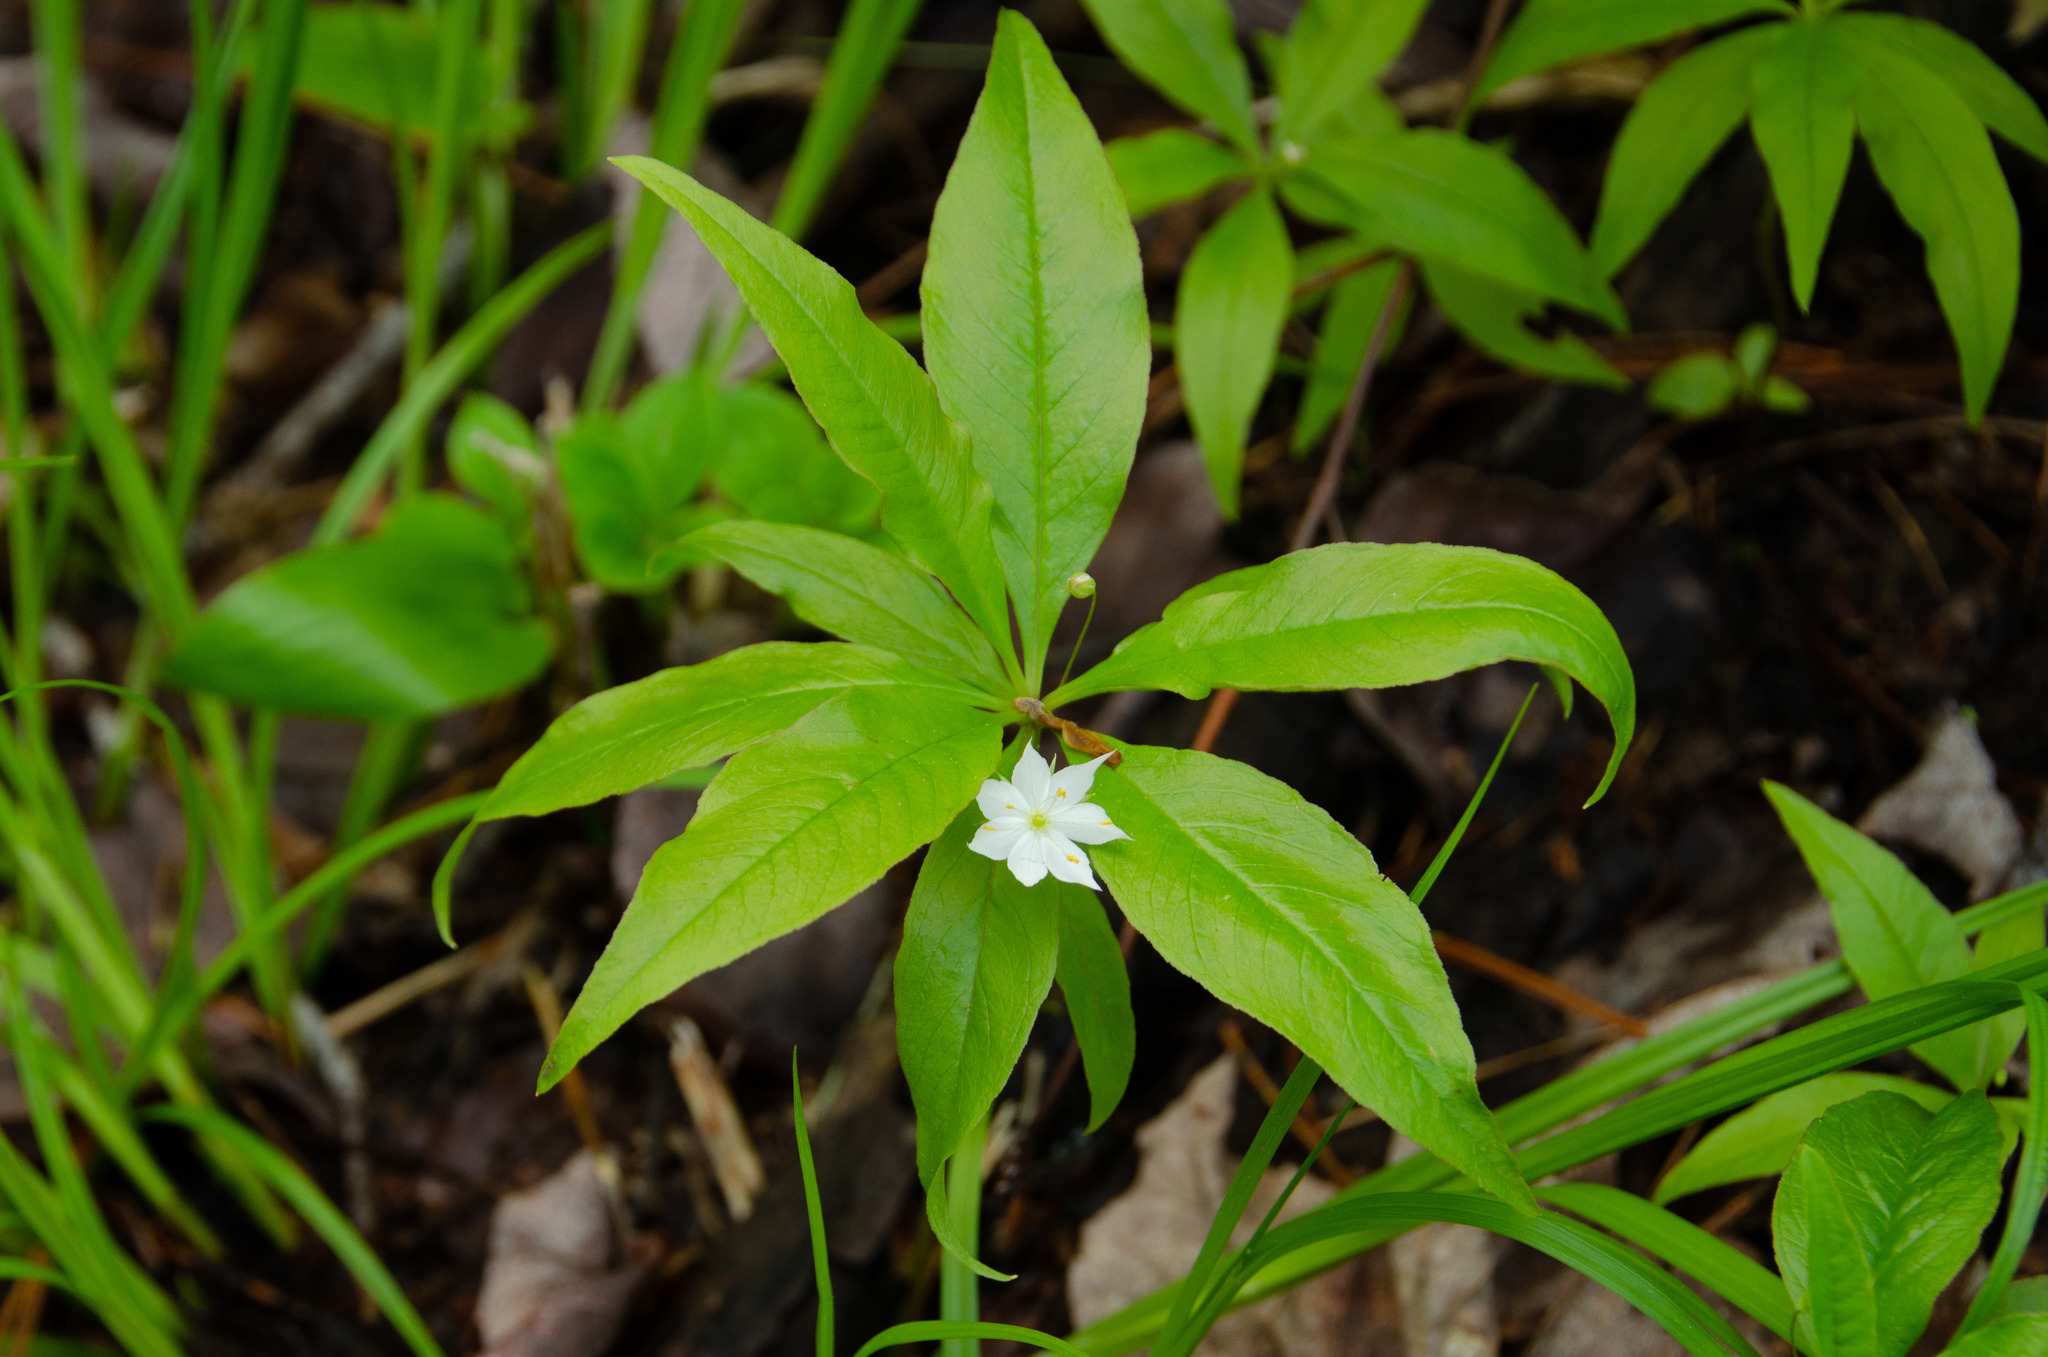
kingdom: Plantae
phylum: Tracheophyta
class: Magnoliopsida
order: Ericales
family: Primulaceae
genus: Lysimachia
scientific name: Lysimachia borealis
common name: American starflower
